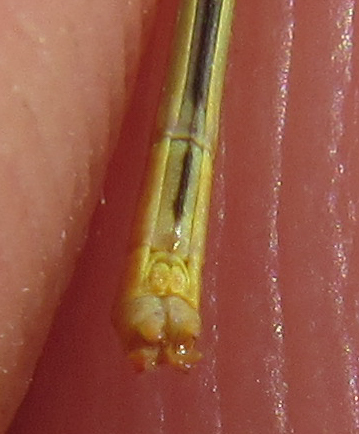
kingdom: Animalia
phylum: Arthropoda
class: Insecta
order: Odonata
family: Coenagrionidae
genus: Agriocnemis
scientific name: Agriocnemis exilis
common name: Little wisp
